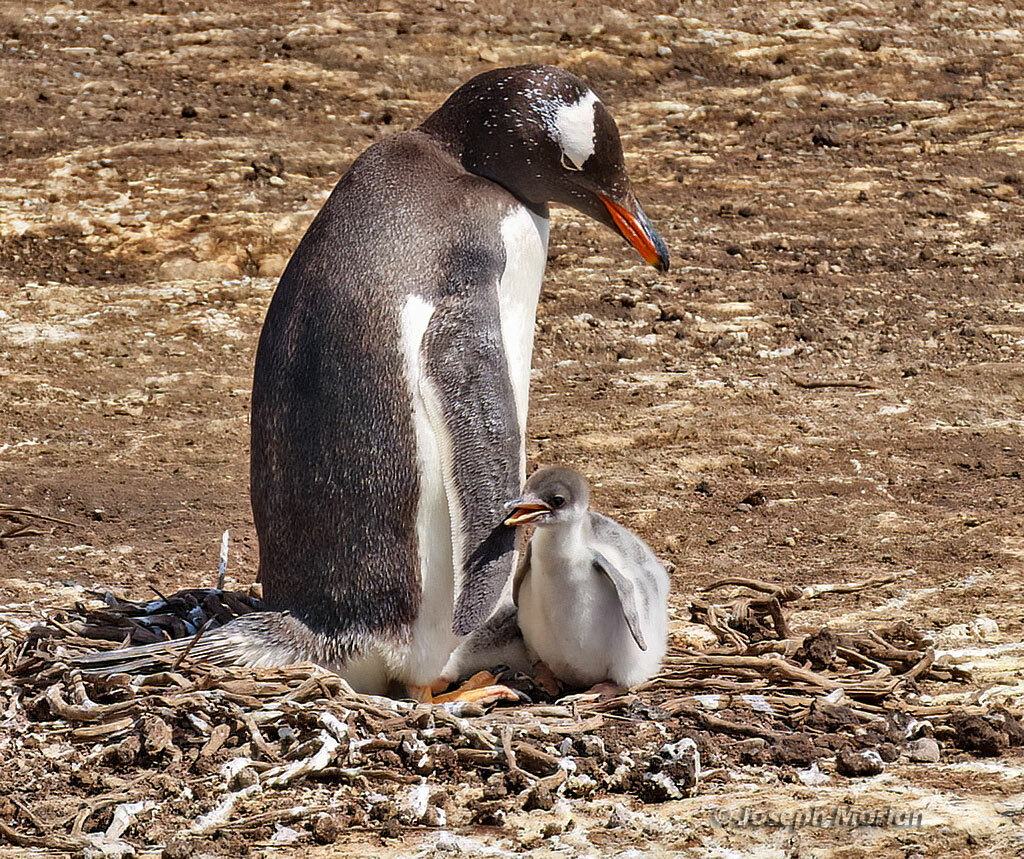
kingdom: Animalia
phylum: Chordata
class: Aves
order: Sphenisciformes
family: Spheniscidae
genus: Pygoscelis
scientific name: Pygoscelis papua
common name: Gentoo penguin
